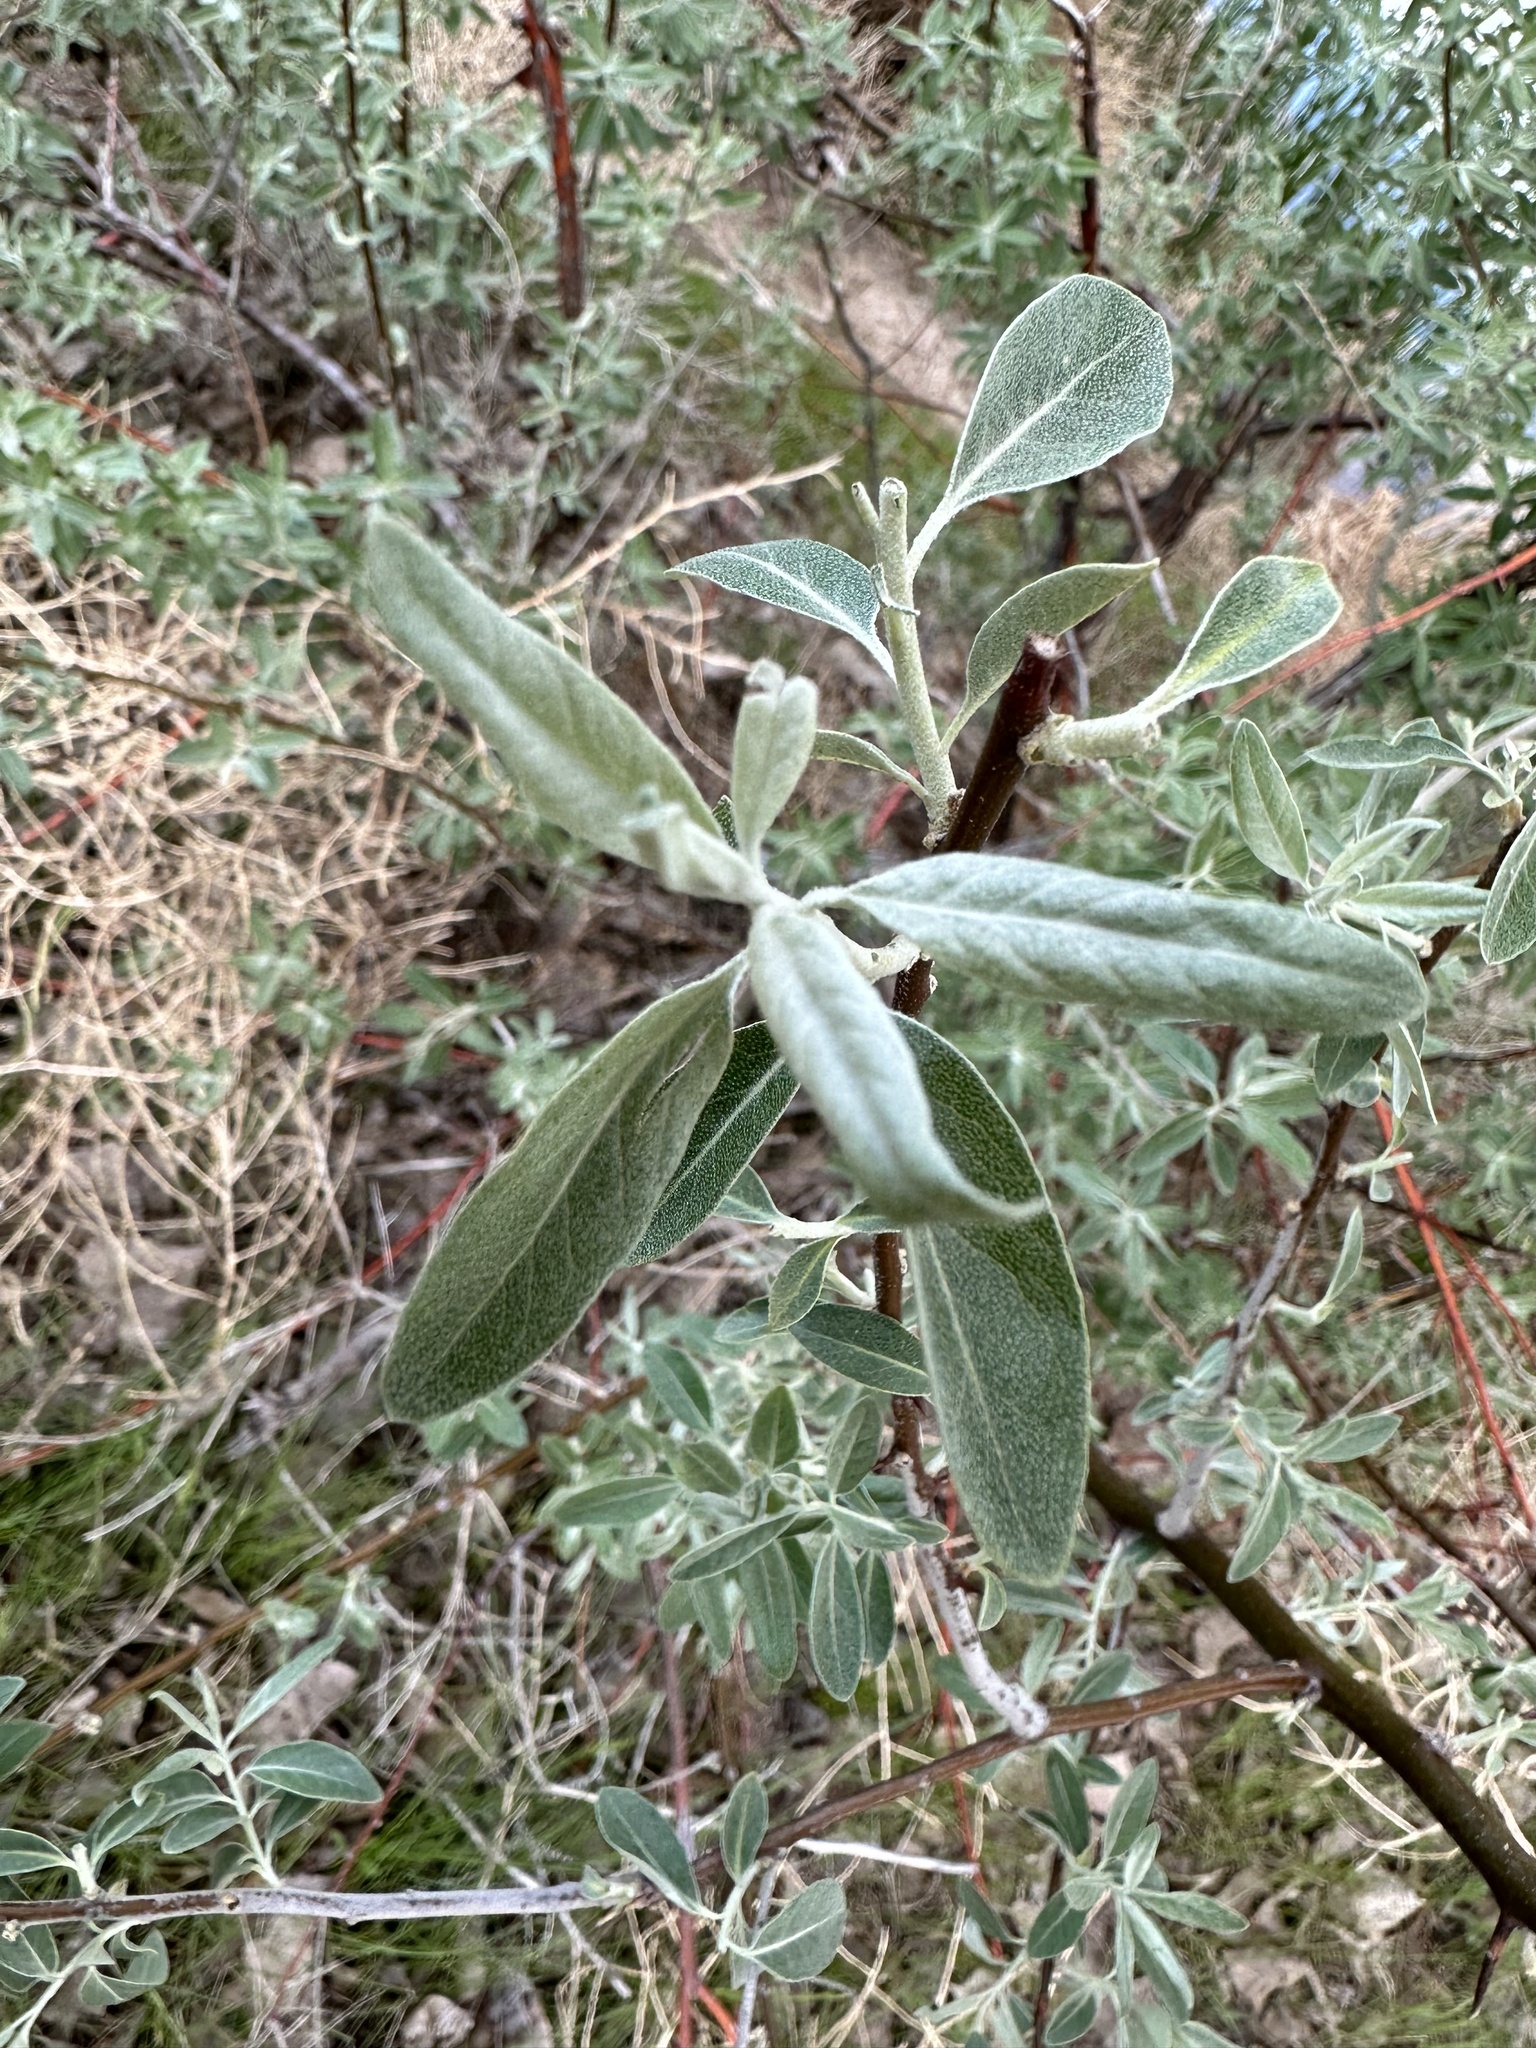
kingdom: Plantae
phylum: Tracheophyta
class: Magnoliopsida
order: Rosales
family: Elaeagnaceae
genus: Elaeagnus
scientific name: Elaeagnus angustifolia
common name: Russian olive
